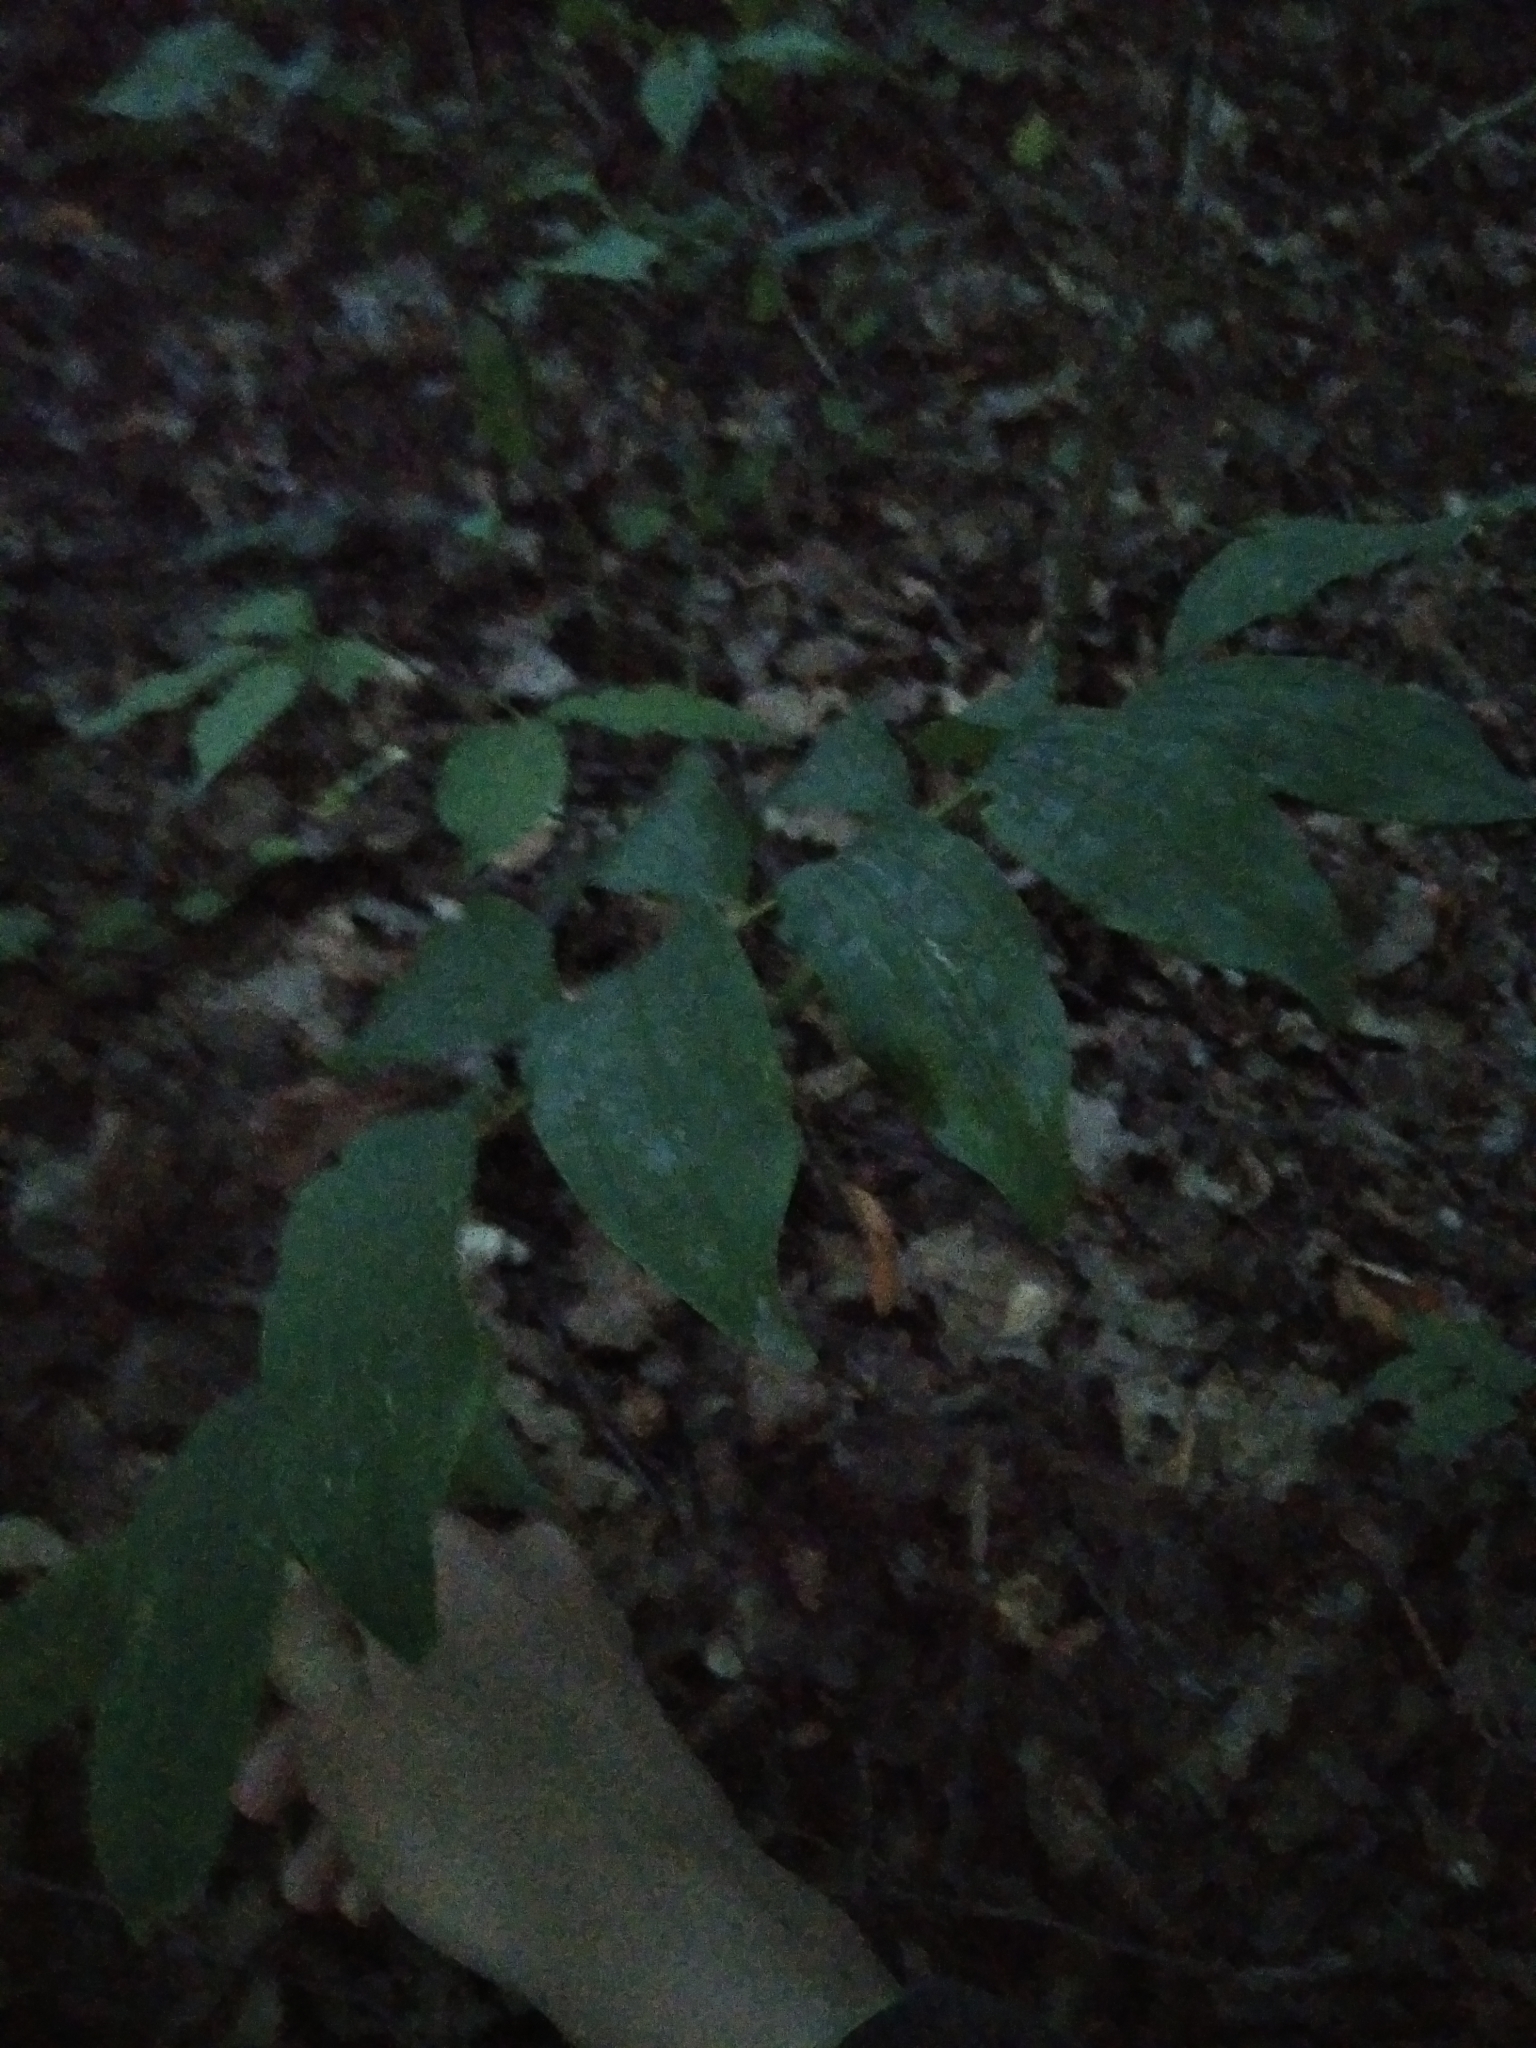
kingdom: Plantae
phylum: Tracheophyta
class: Liliopsida
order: Asparagales
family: Asparagaceae
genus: Polygonatum
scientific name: Polygonatum multiflorum
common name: Solomon's-seal
